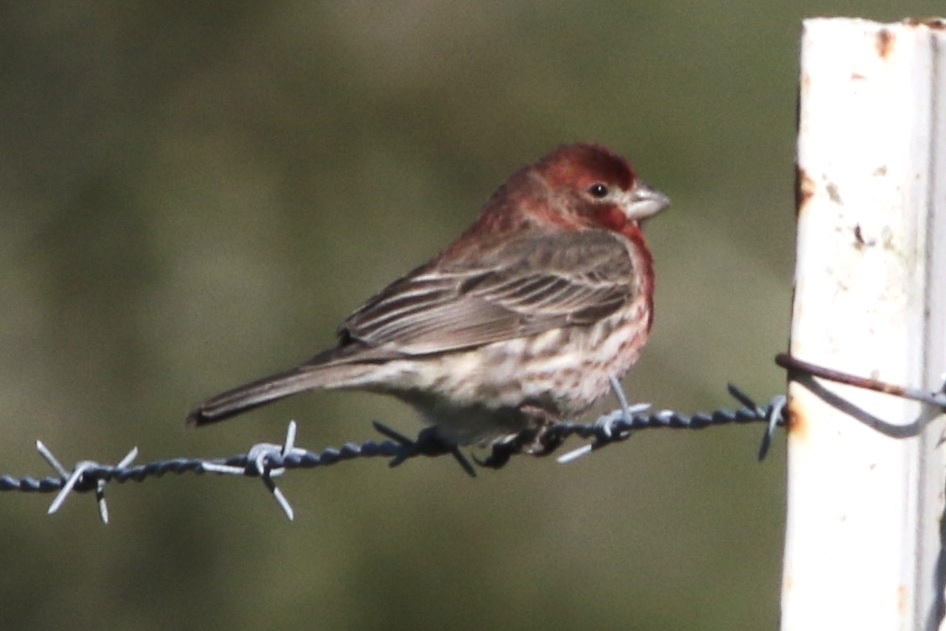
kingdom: Animalia
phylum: Chordata
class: Aves
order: Passeriformes
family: Fringillidae
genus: Haemorhous
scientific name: Haemorhous mexicanus
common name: House finch
